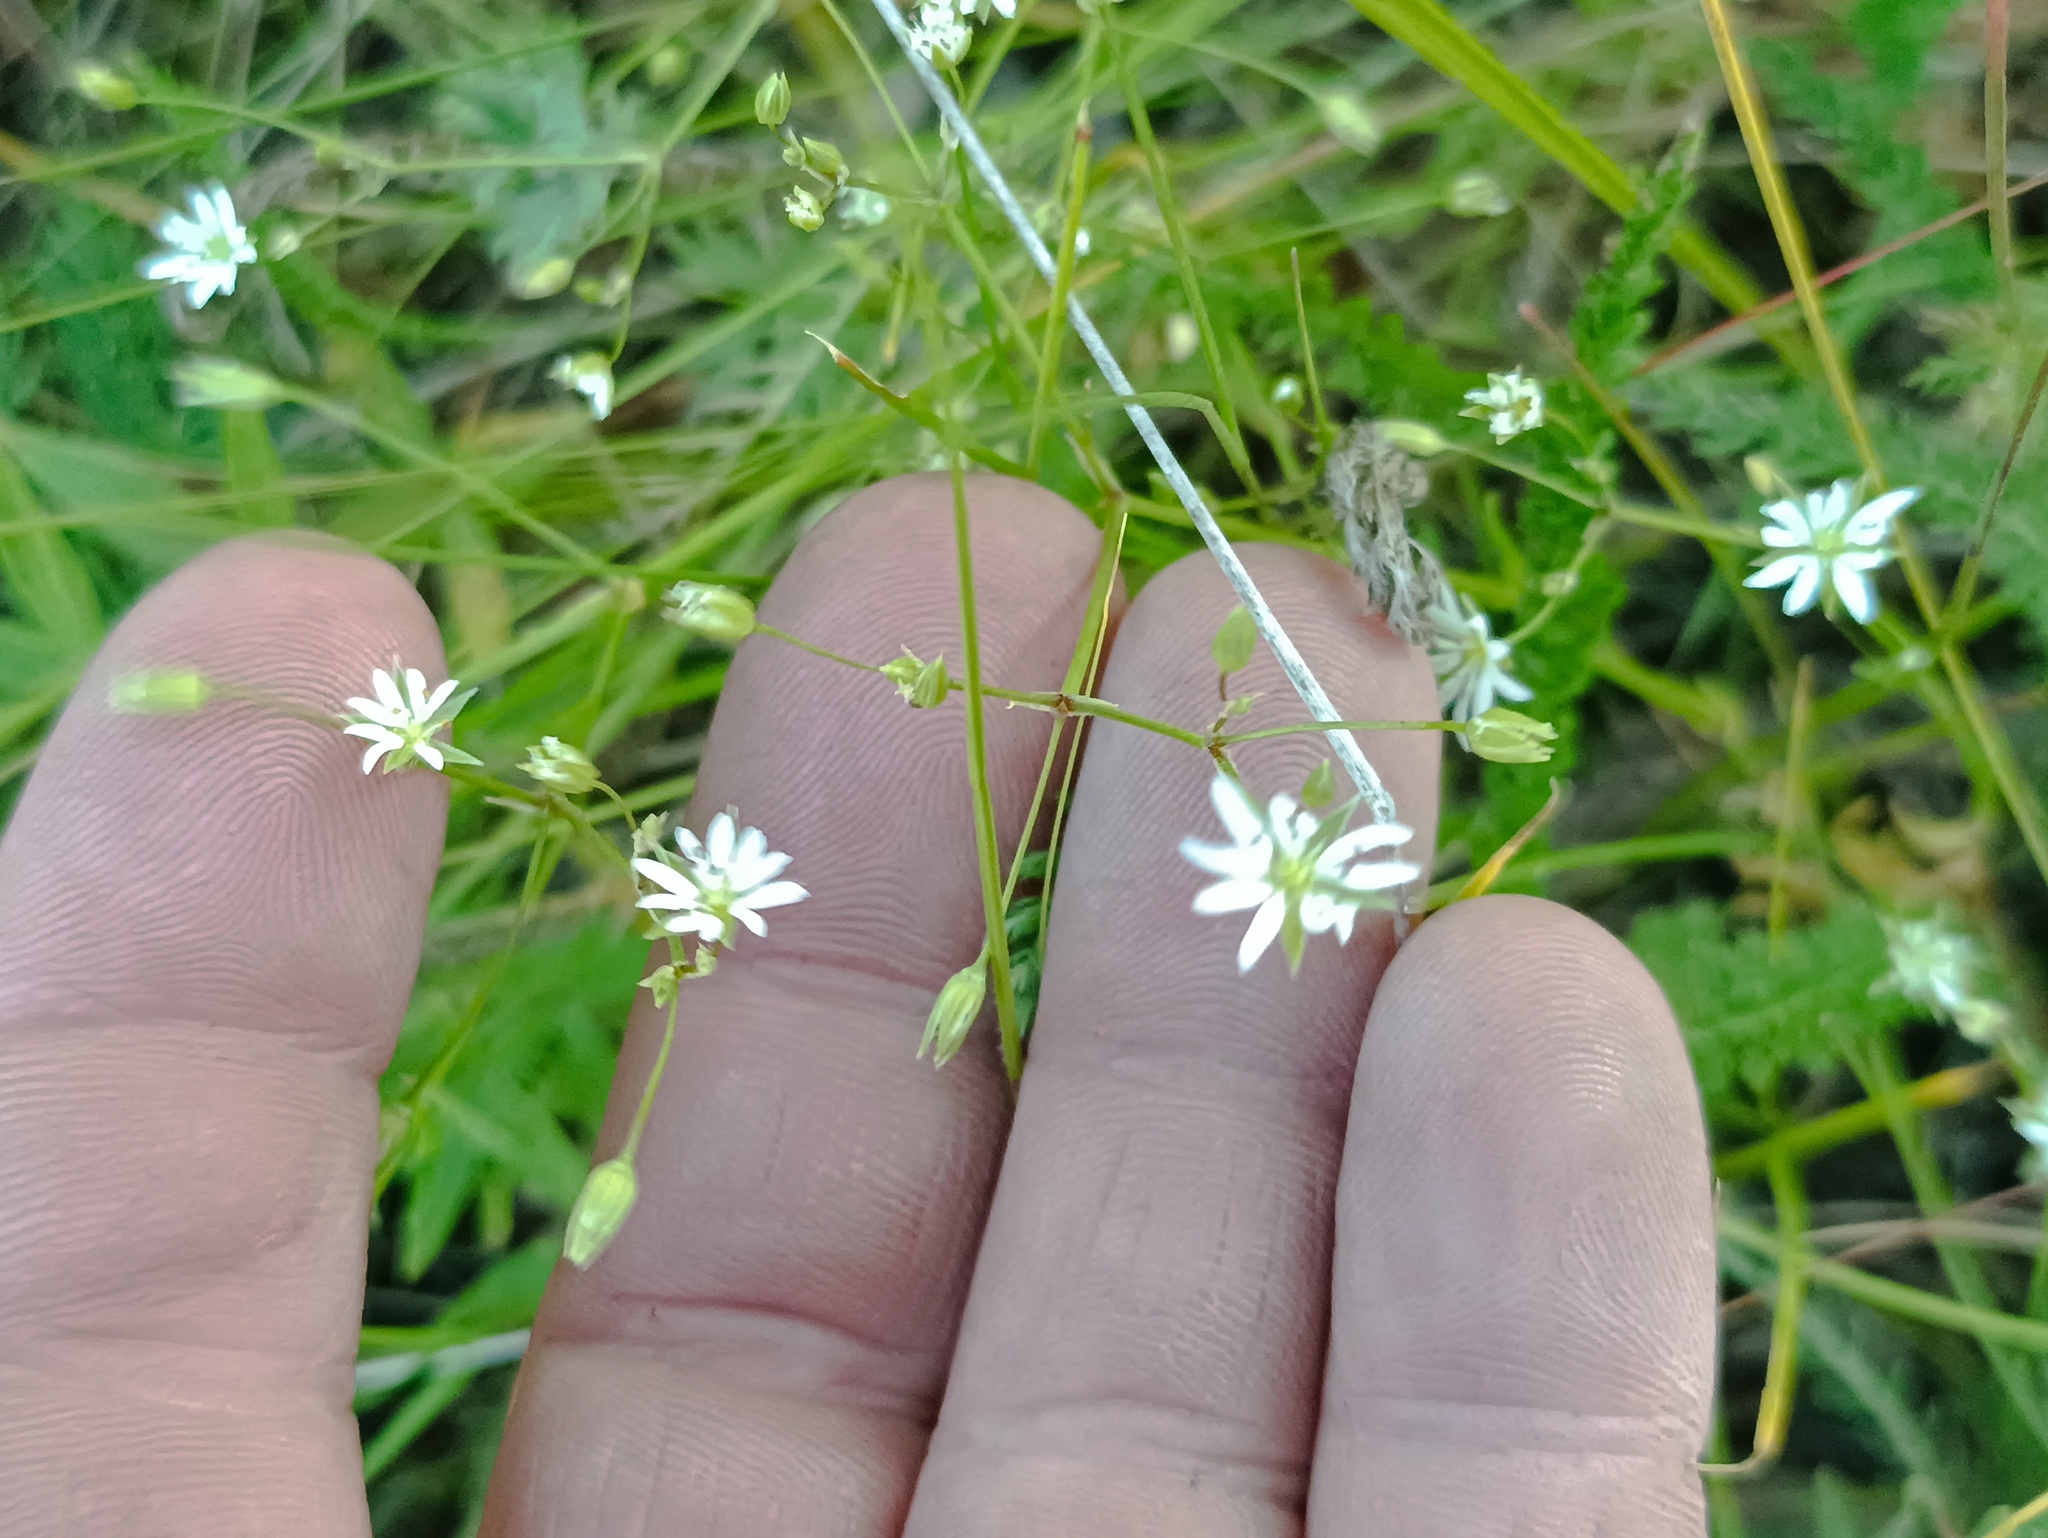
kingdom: Plantae
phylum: Tracheophyta
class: Magnoliopsida
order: Caryophyllales
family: Caryophyllaceae
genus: Stellaria
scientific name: Stellaria graminea
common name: Grass-like starwort
